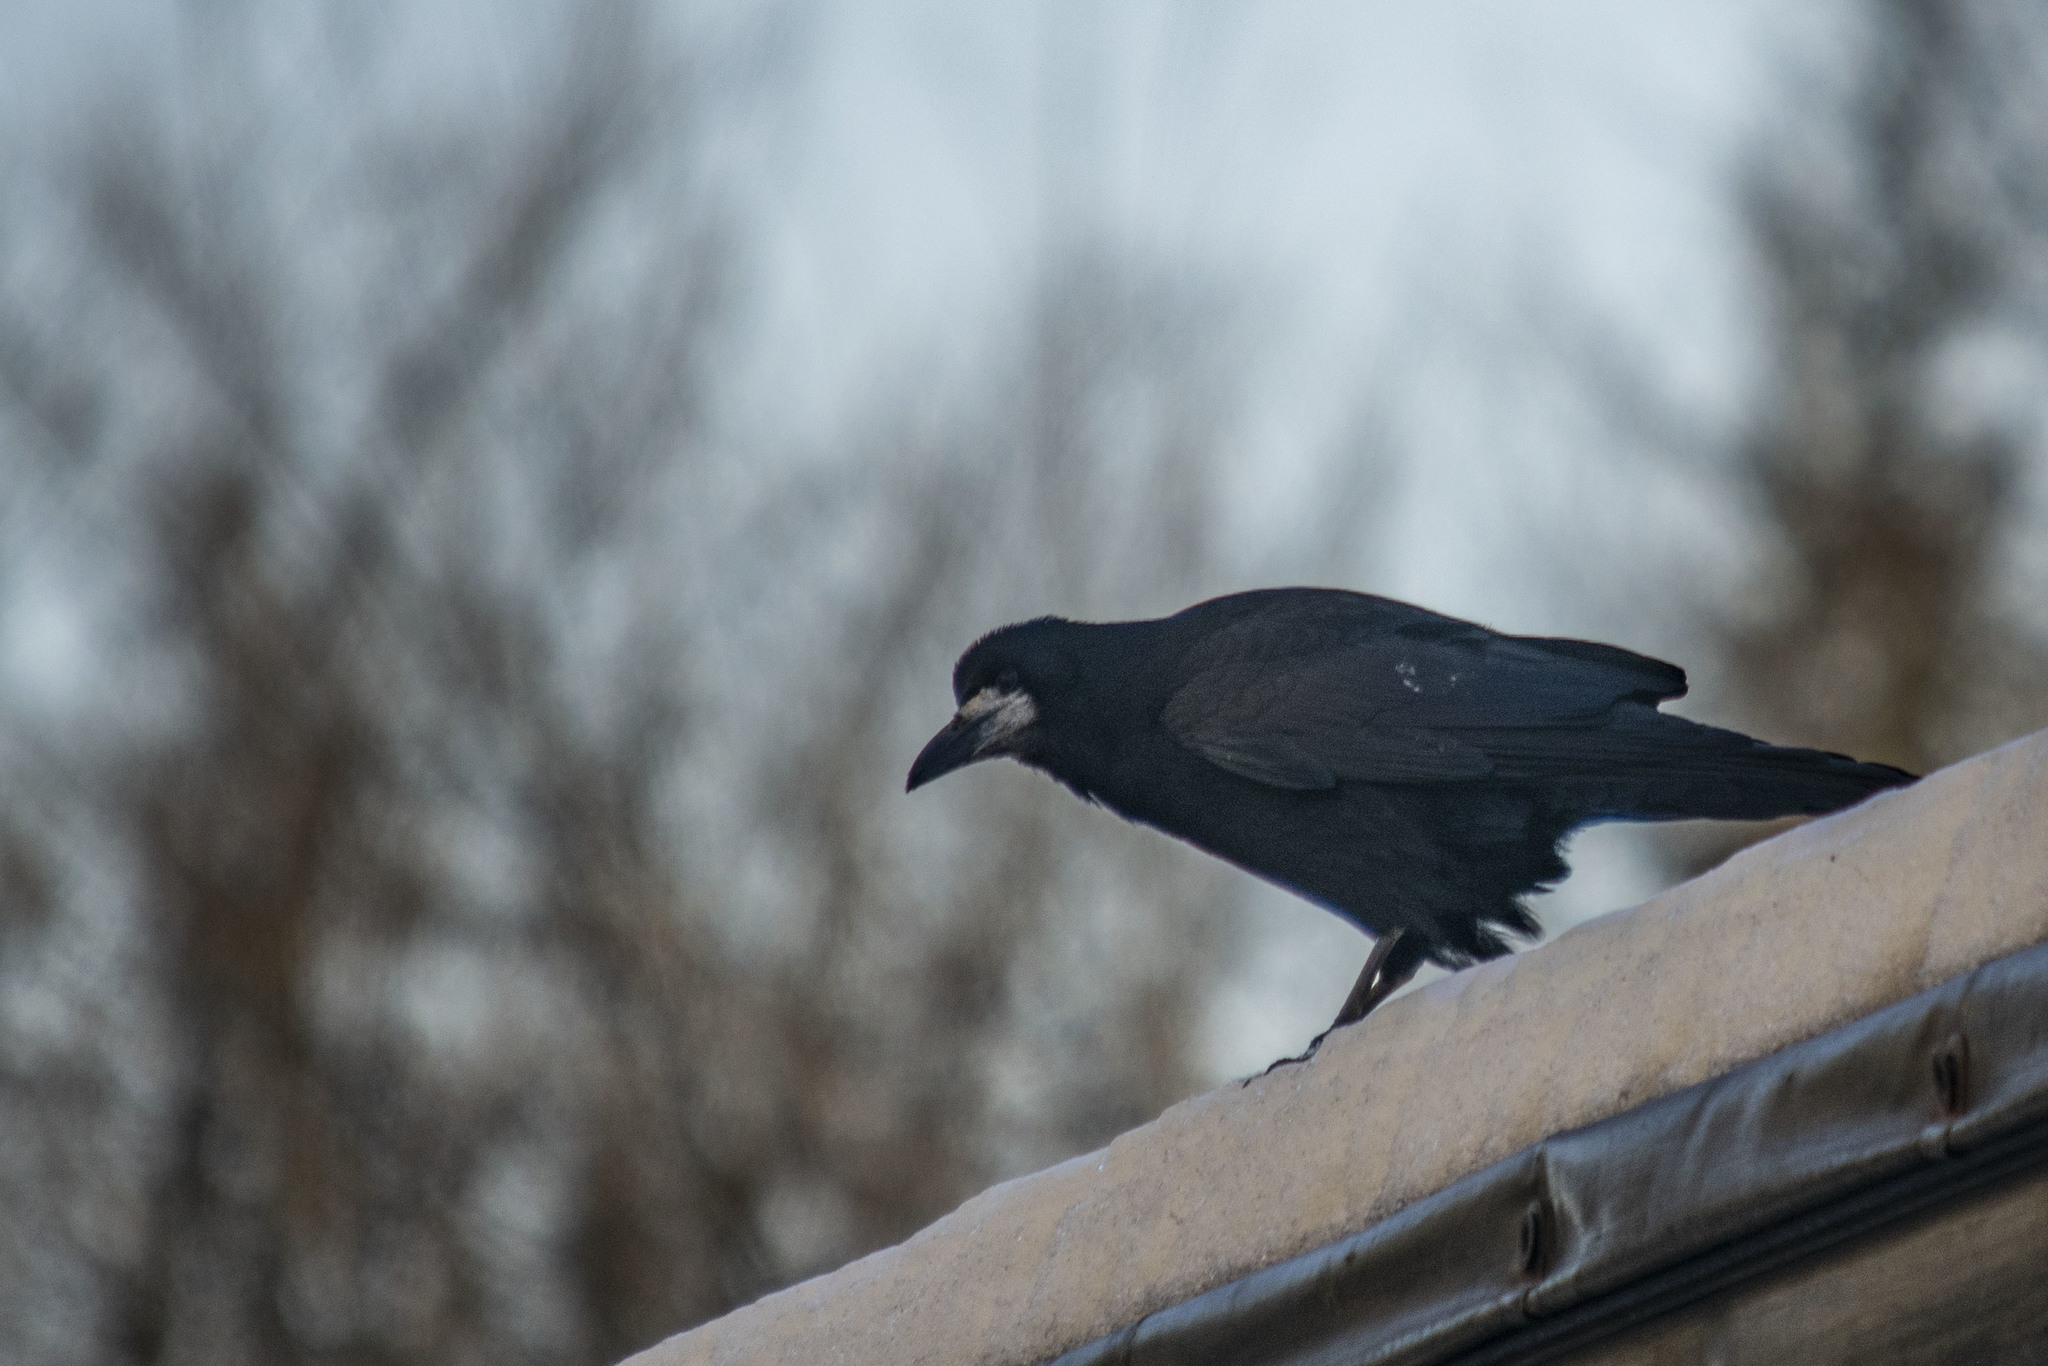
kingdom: Animalia
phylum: Chordata
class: Aves
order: Passeriformes
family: Corvidae
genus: Corvus
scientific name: Corvus frugilegus
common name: Rook
